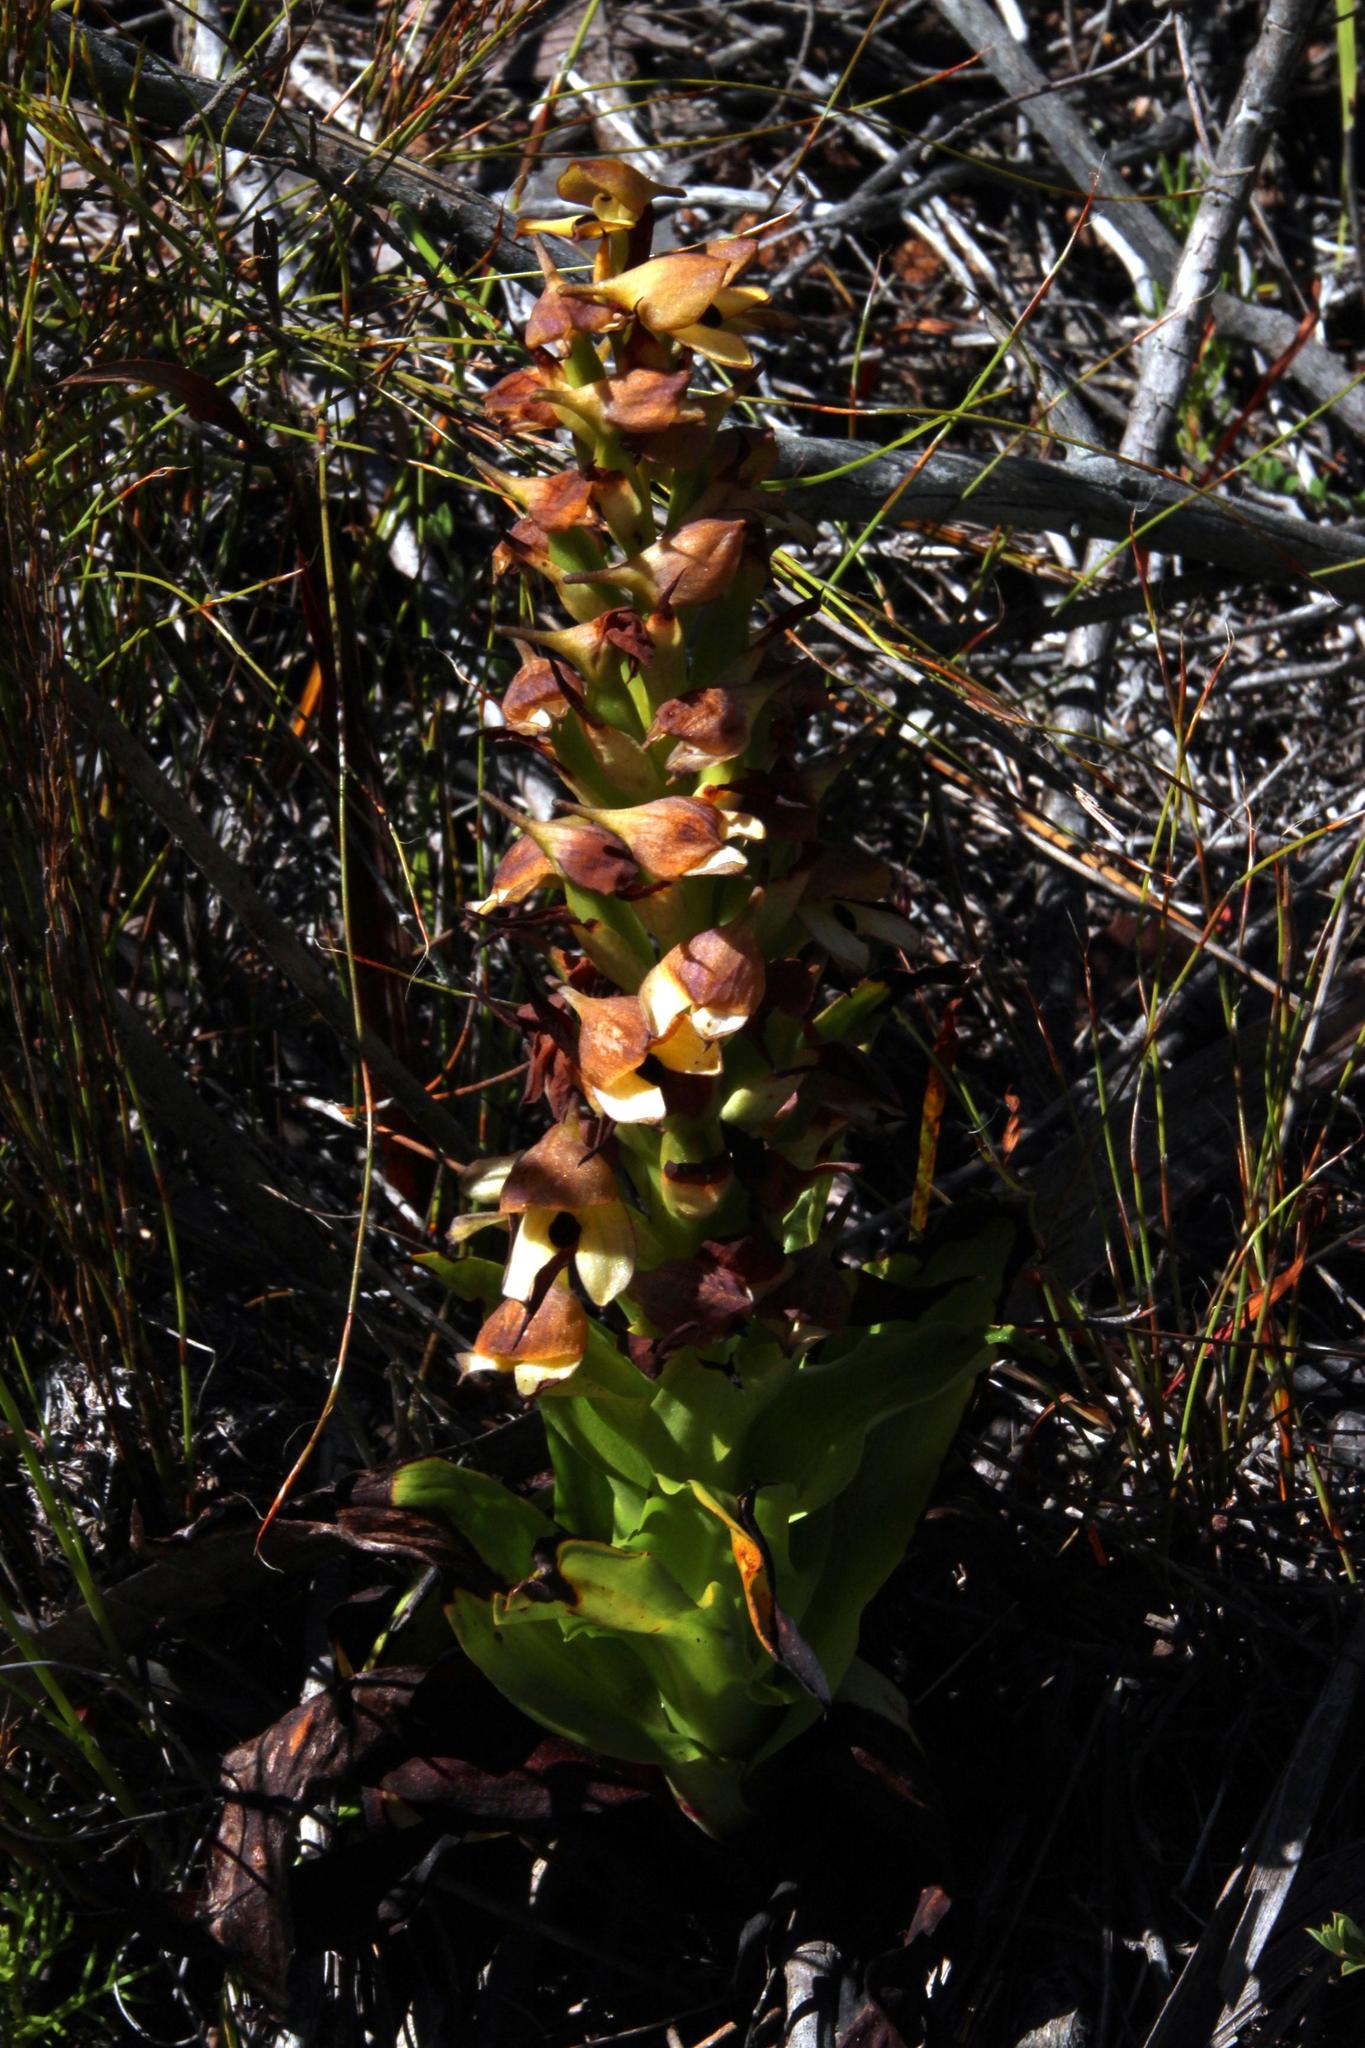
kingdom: Plantae
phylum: Tracheophyta
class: Liliopsida
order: Asparagales
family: Orchidaceae
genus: Disa
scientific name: Disa cornuta
